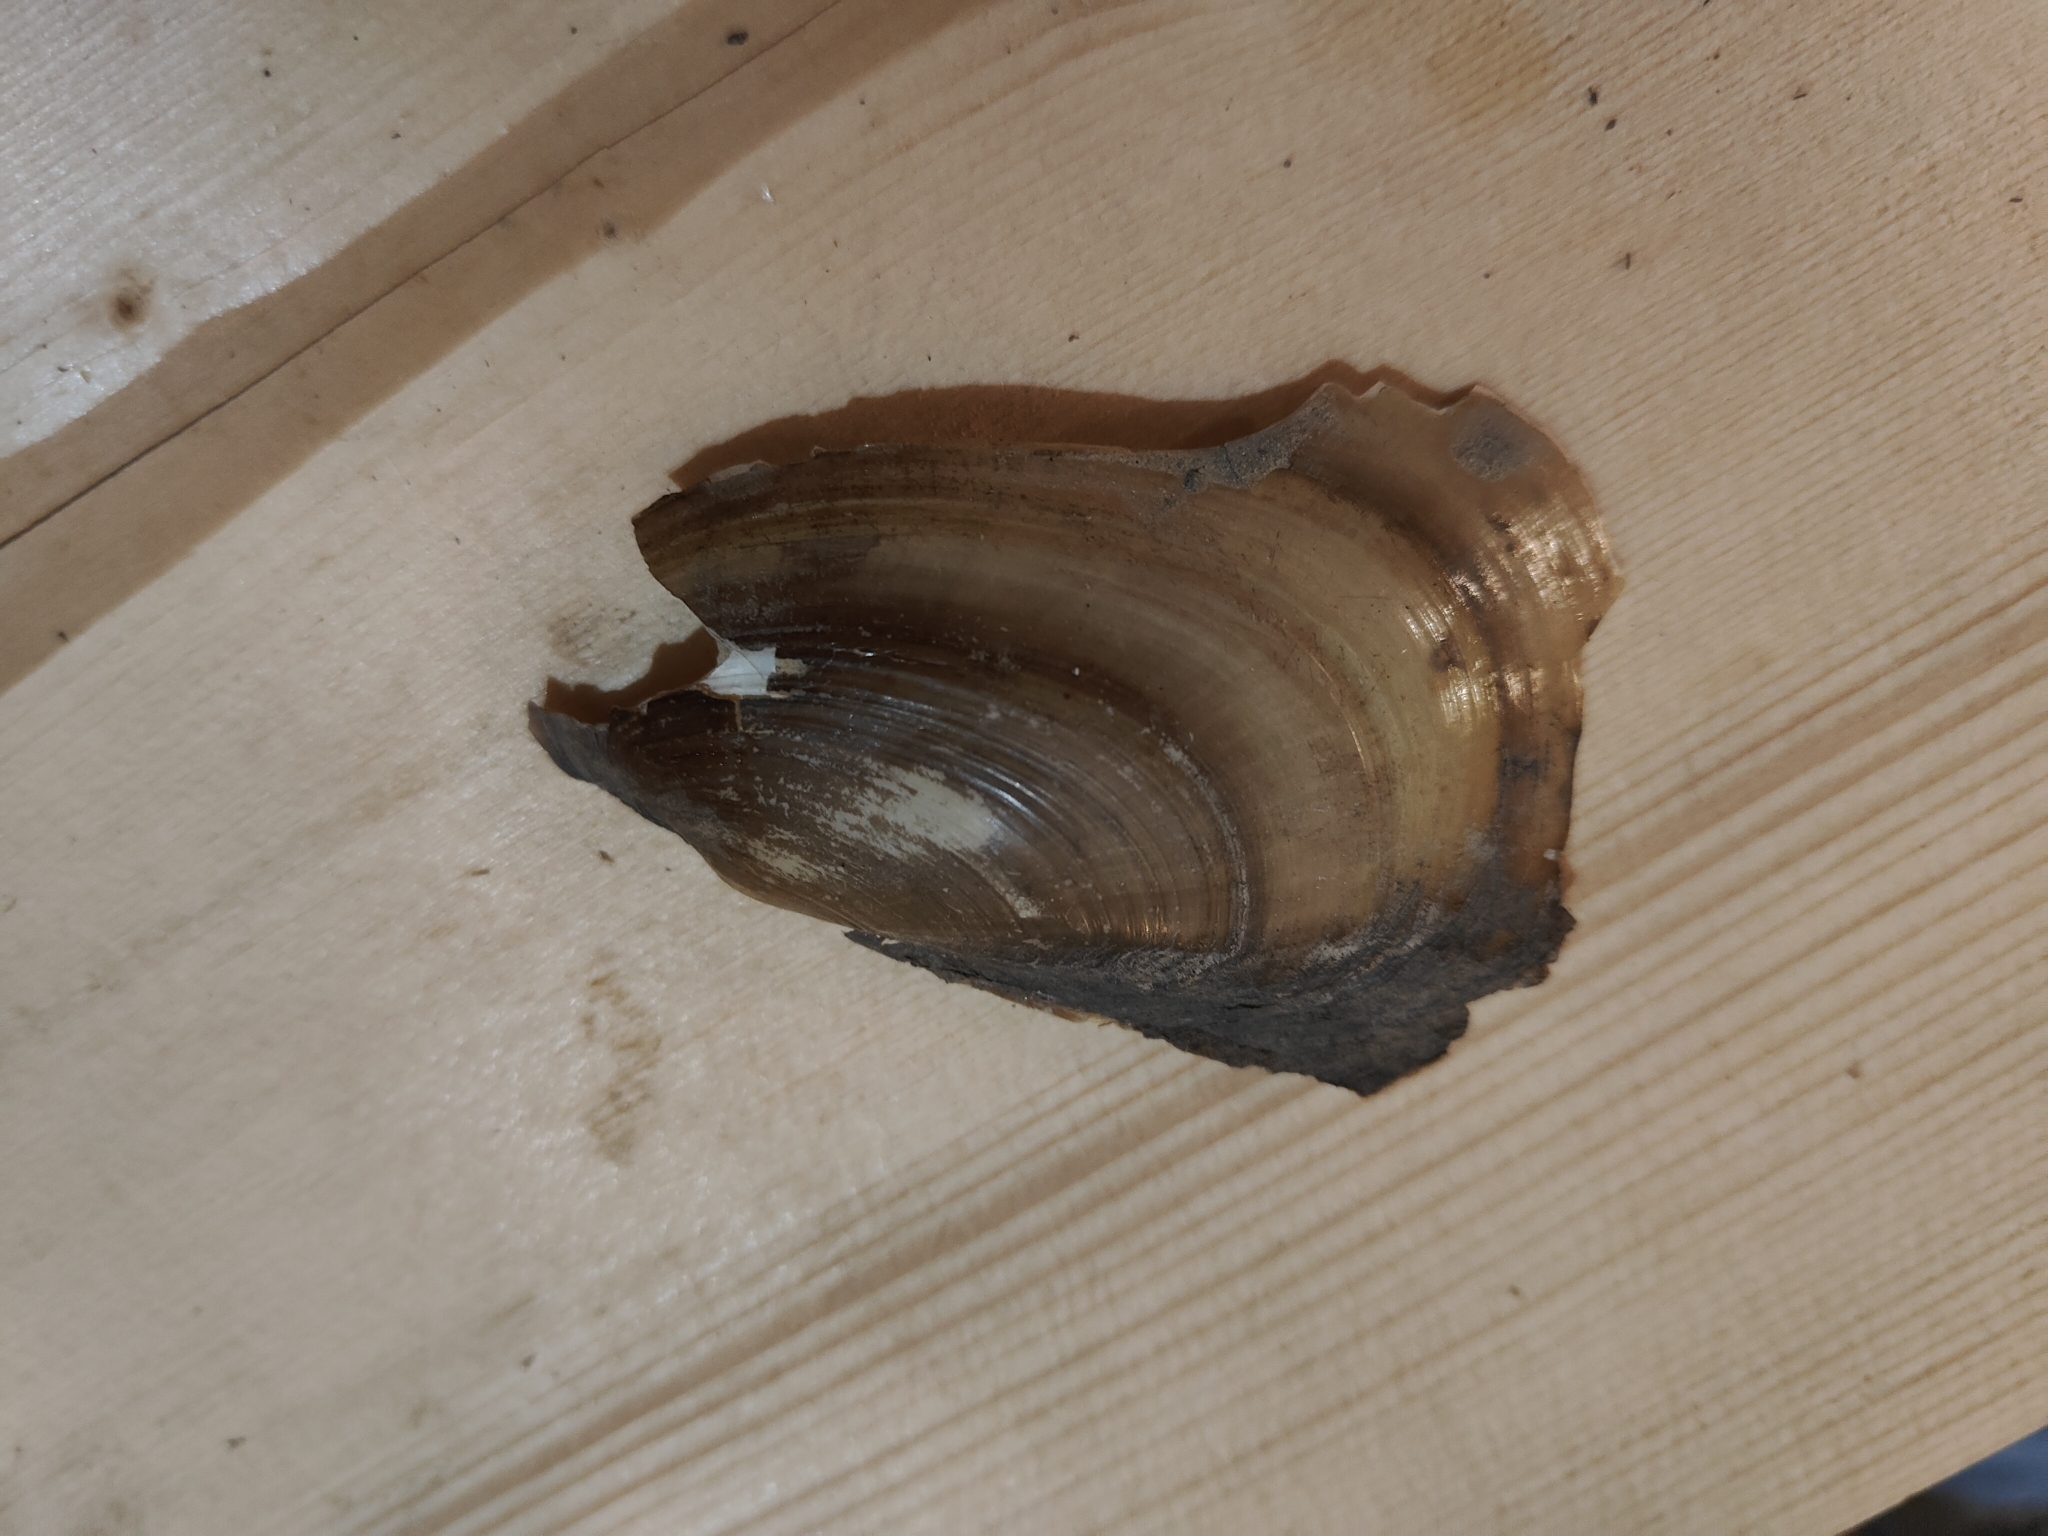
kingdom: Animalia
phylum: Mollusca
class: Bivalvia
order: Unionida
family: Unionidae
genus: Potamilus
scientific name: Potamilus fragilis
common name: Fragile papershell
